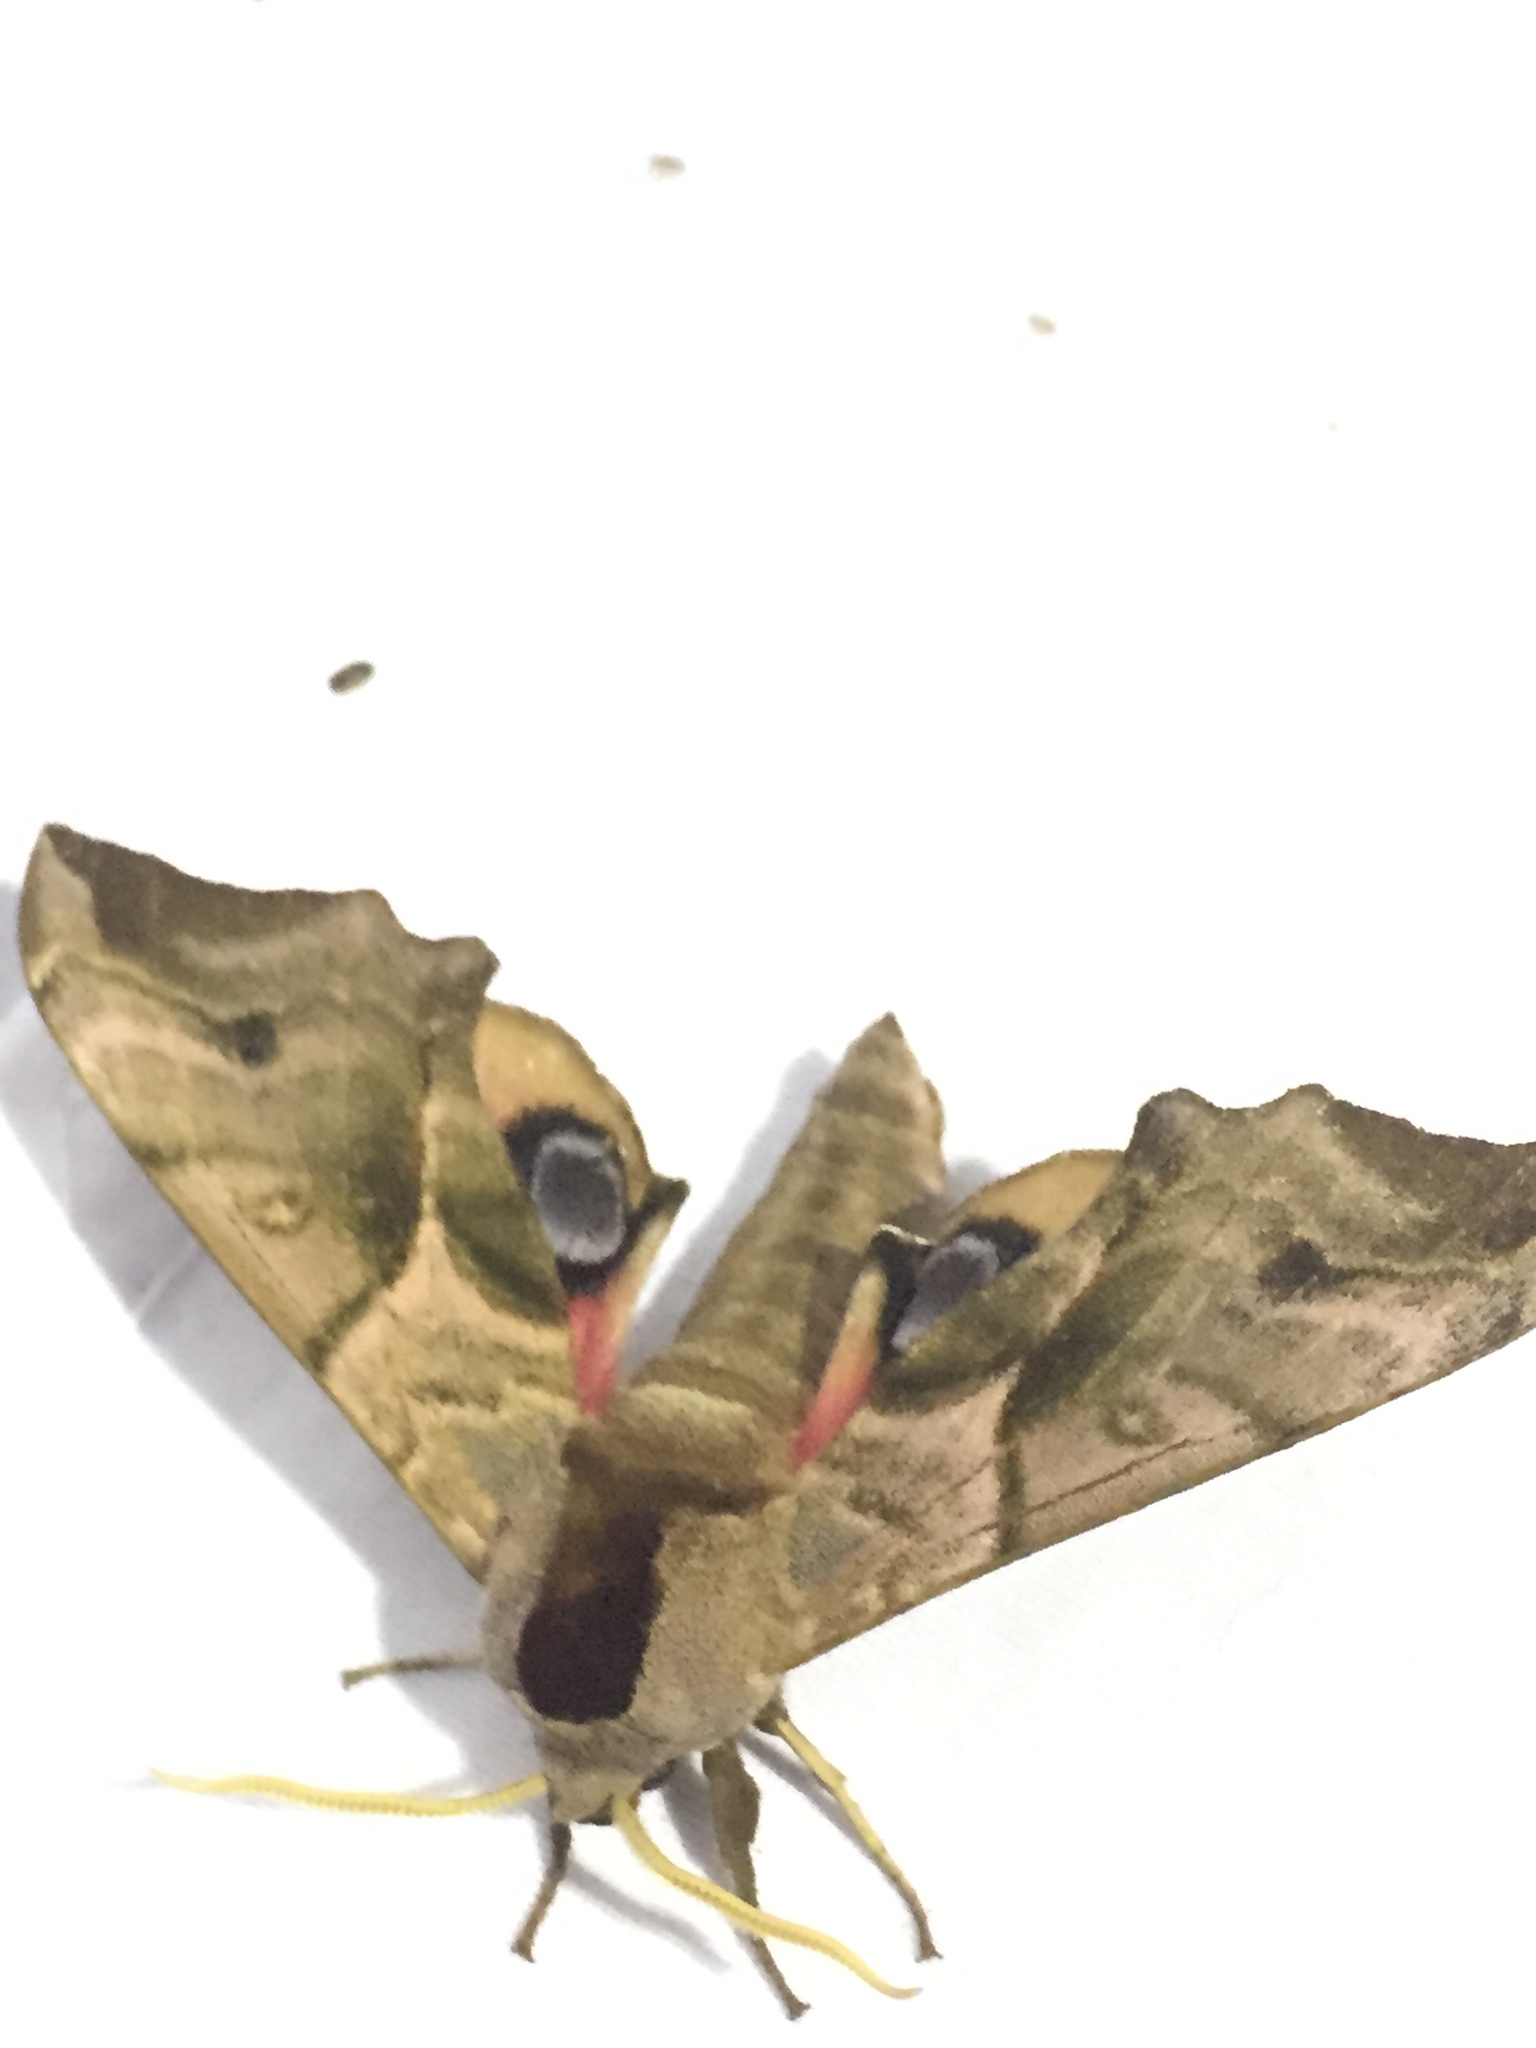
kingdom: Animalia
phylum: Arthropoda
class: Insecta
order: Lepidoptera
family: Sphingidae
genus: Smerinthus
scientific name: Smerinthus ocellata
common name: Eyed hawk-moth
